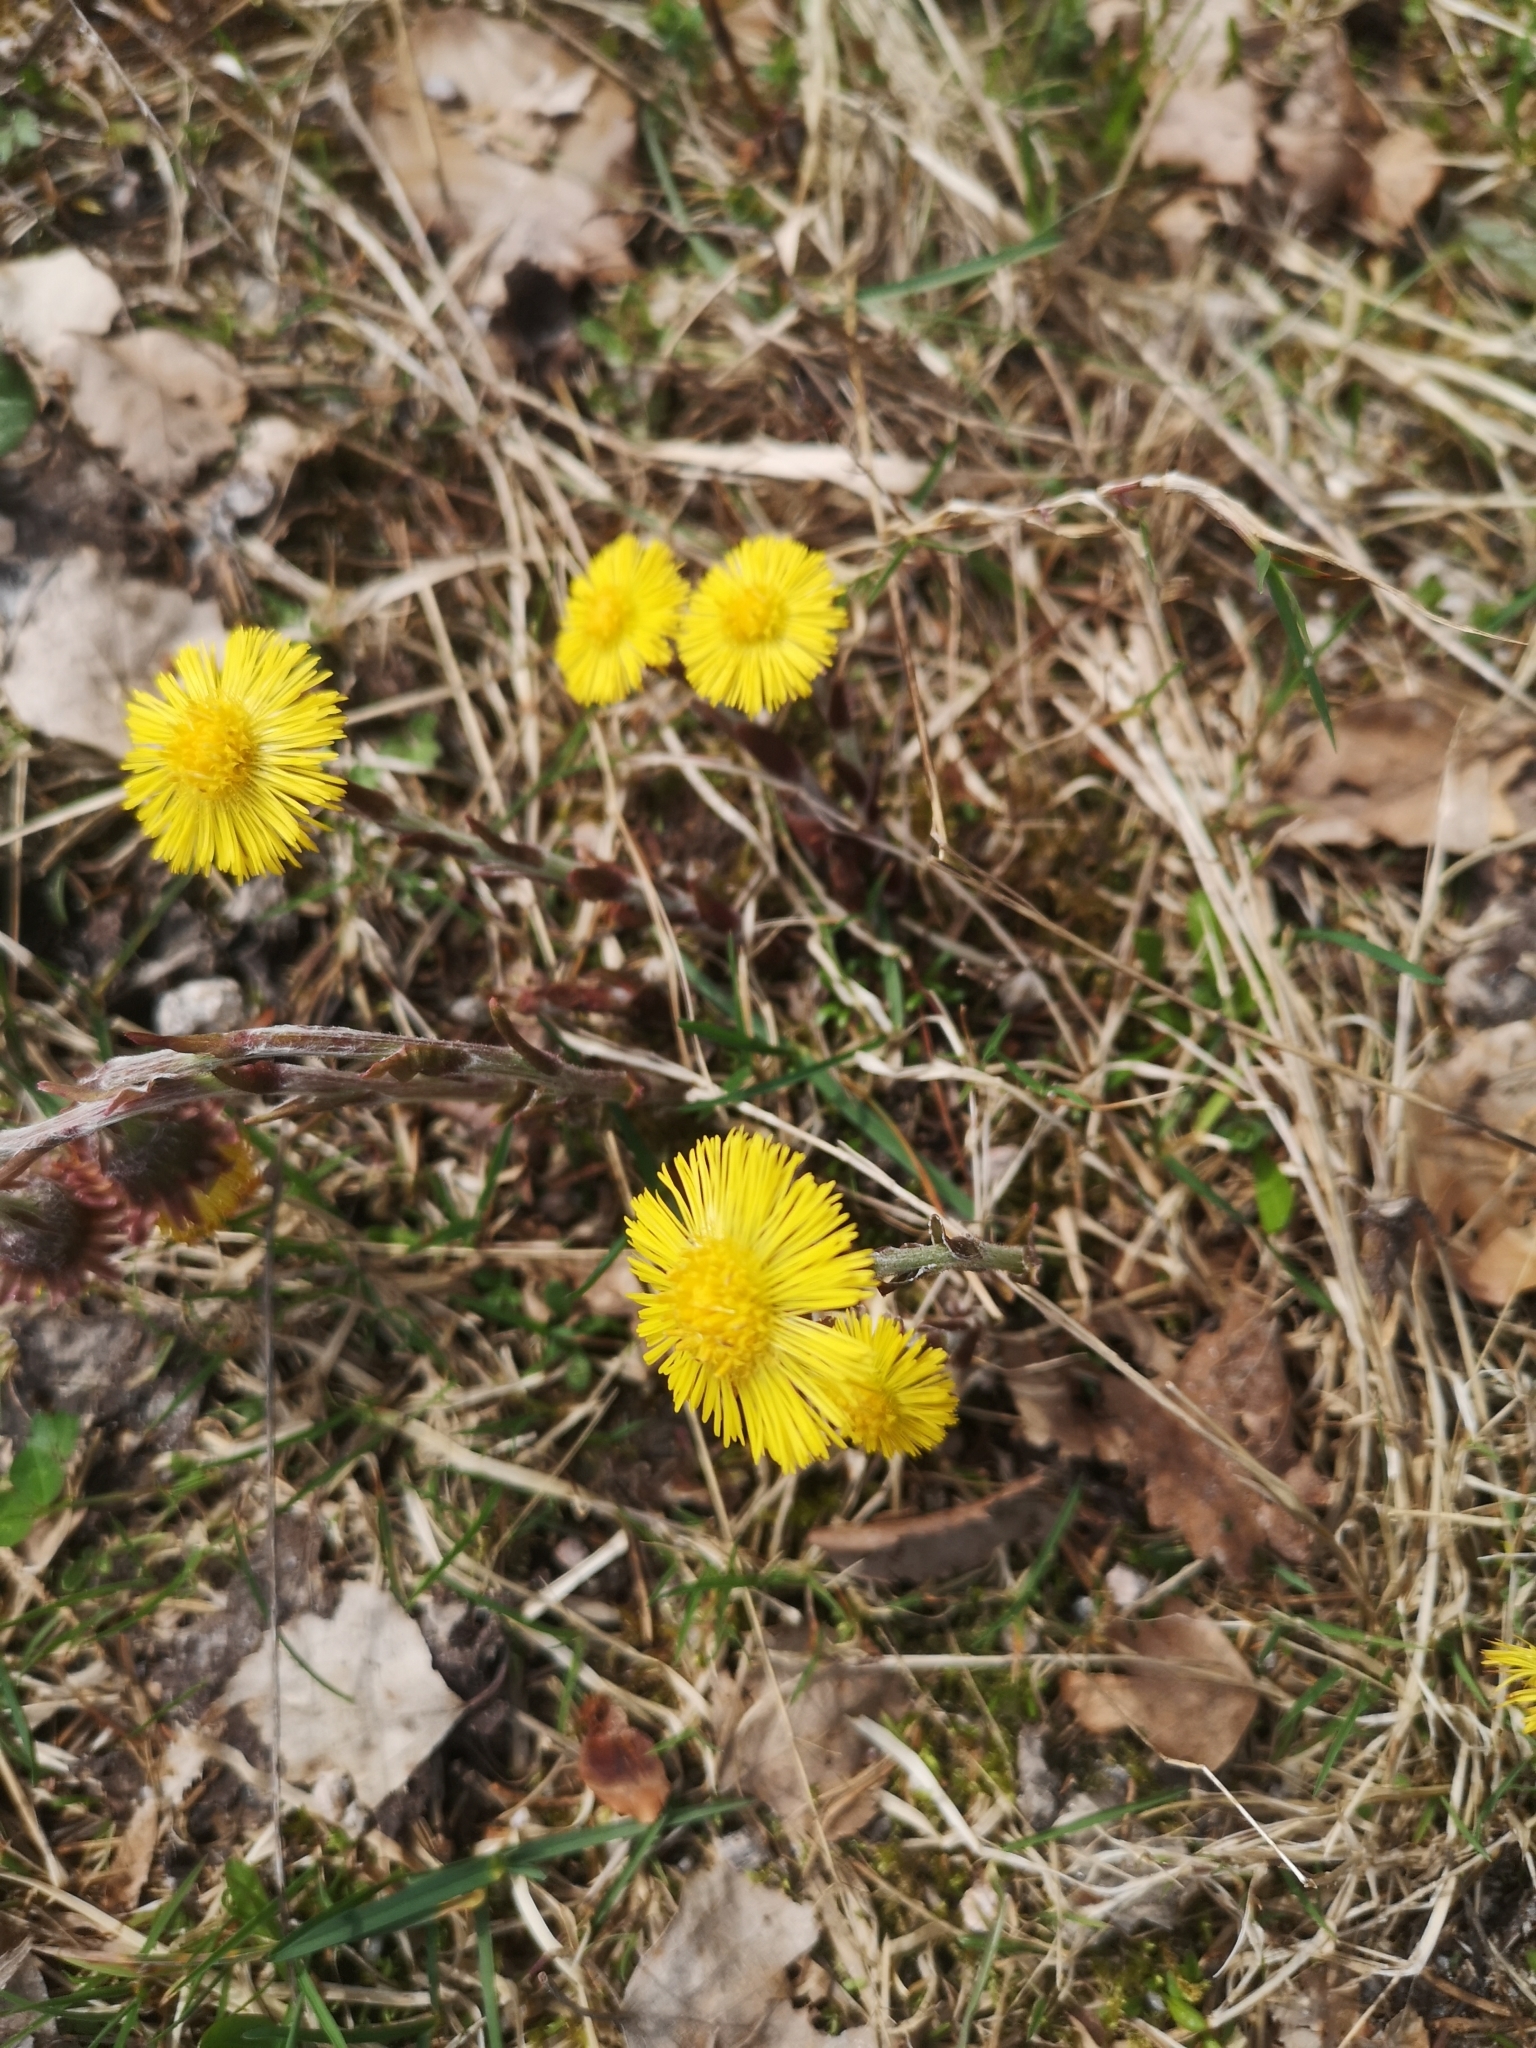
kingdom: Plantae
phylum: Tracheophyta
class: Magnoliopsida
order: Asterales
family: Asteraceae
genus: Tussilago
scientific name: Tussilago farfara
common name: Coltsfoot
